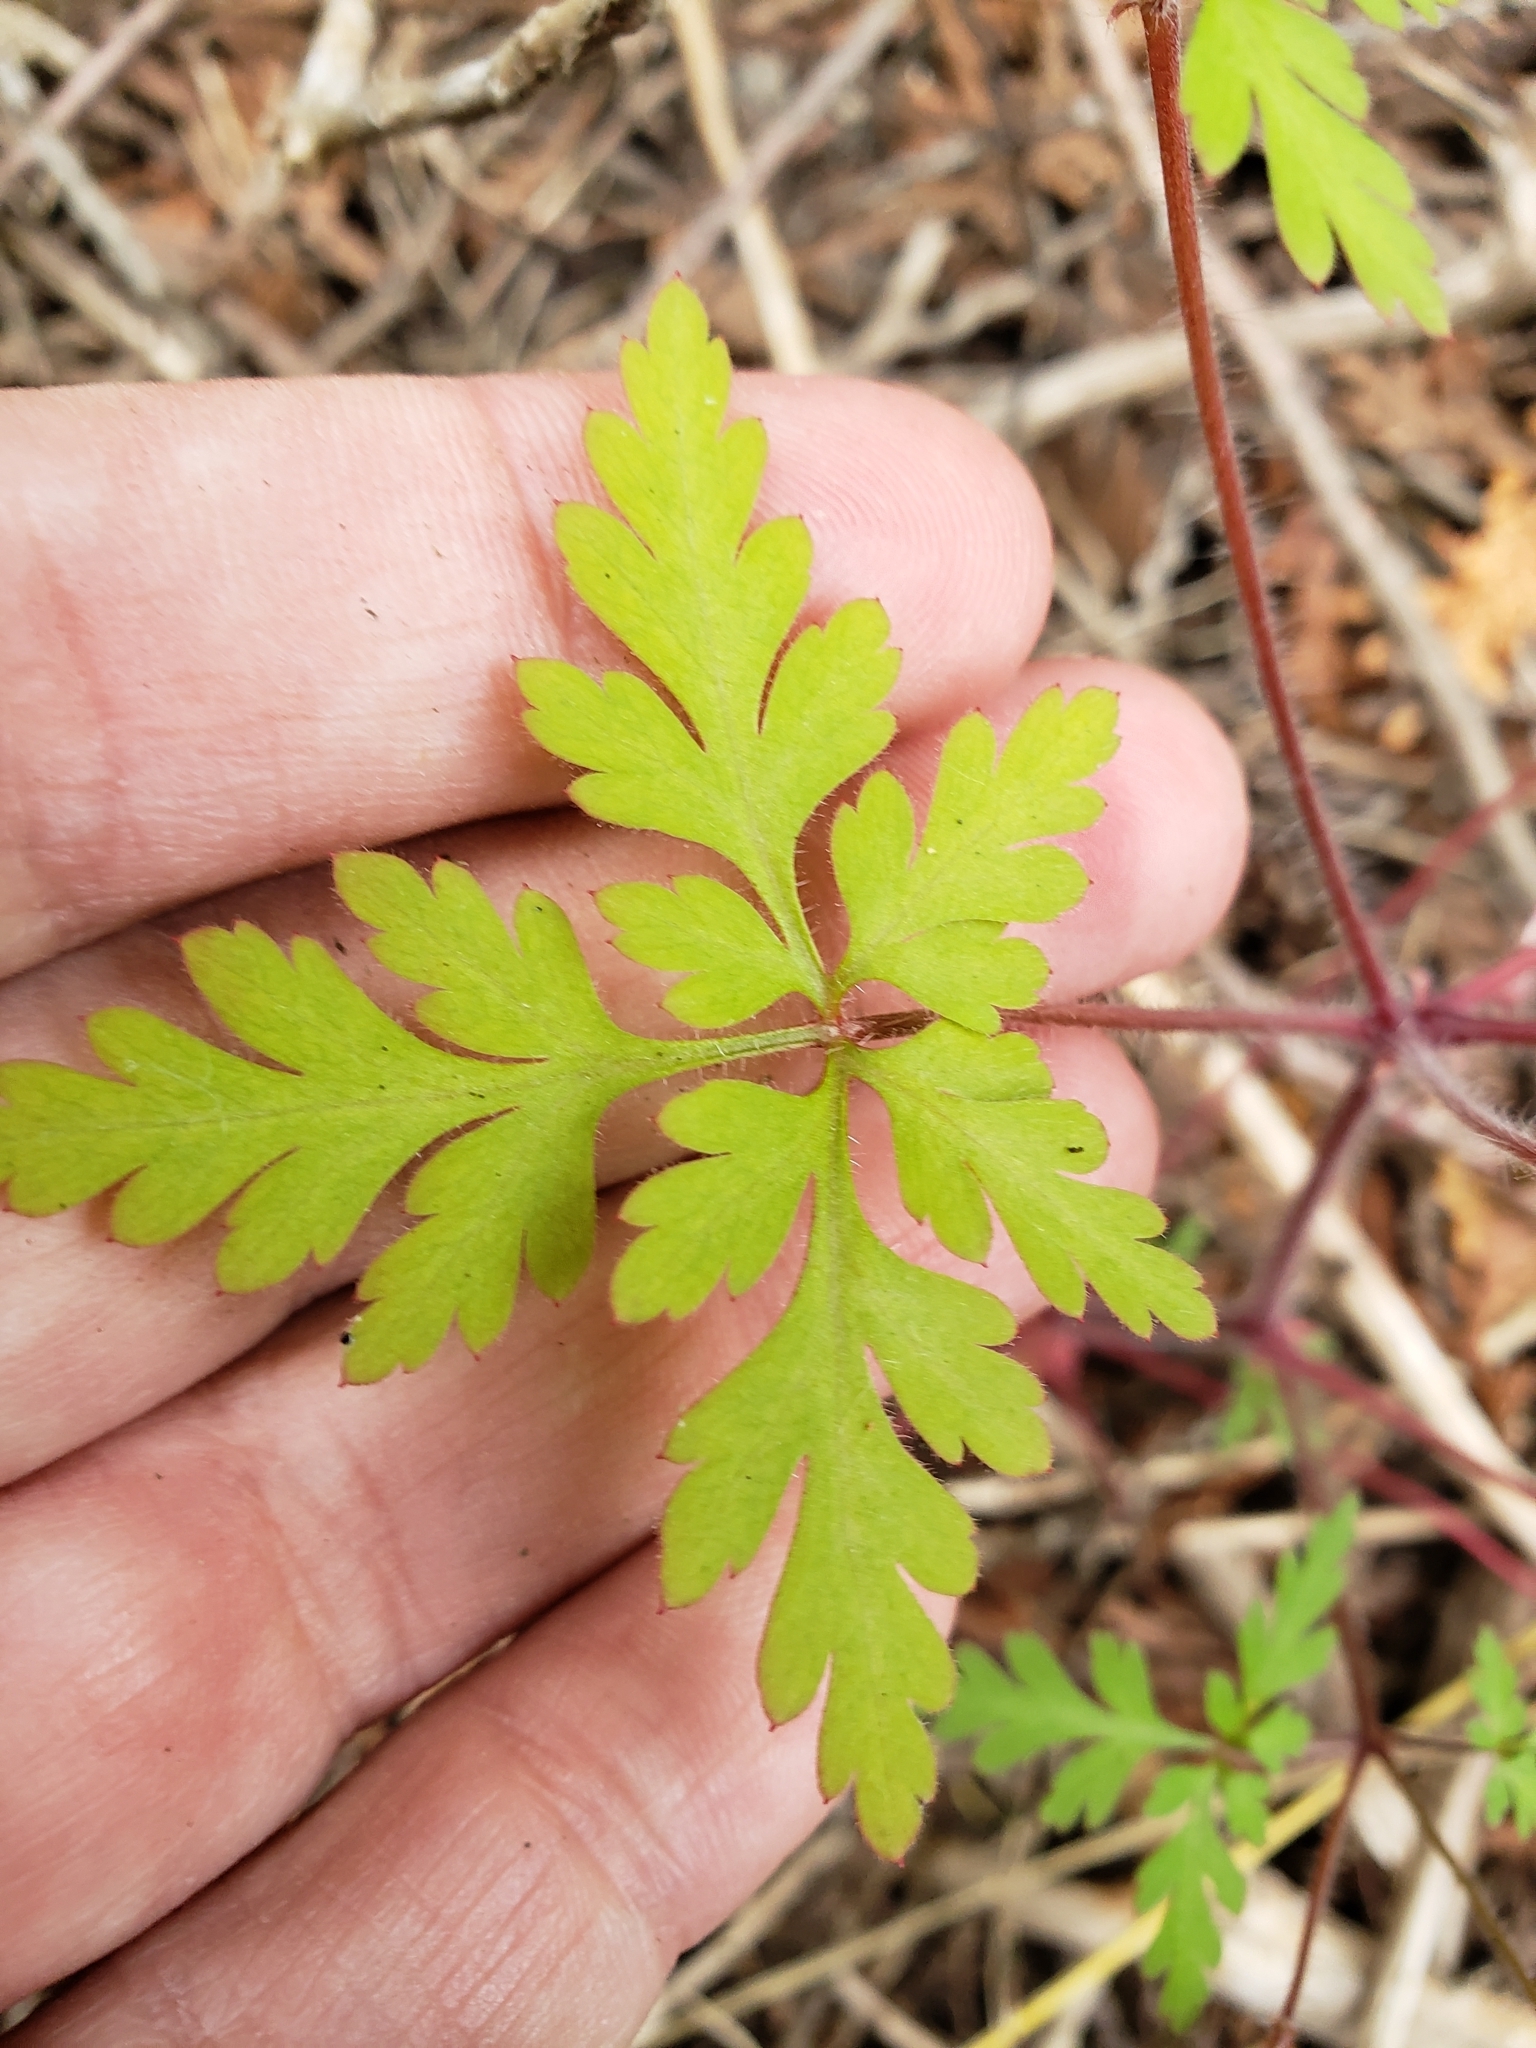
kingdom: Plantae
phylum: Tracheophyta
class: Magnoliopsida
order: Geraniales
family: Geraniaceae
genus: Geranium
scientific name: Geranium robertianum
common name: Herb-robert
